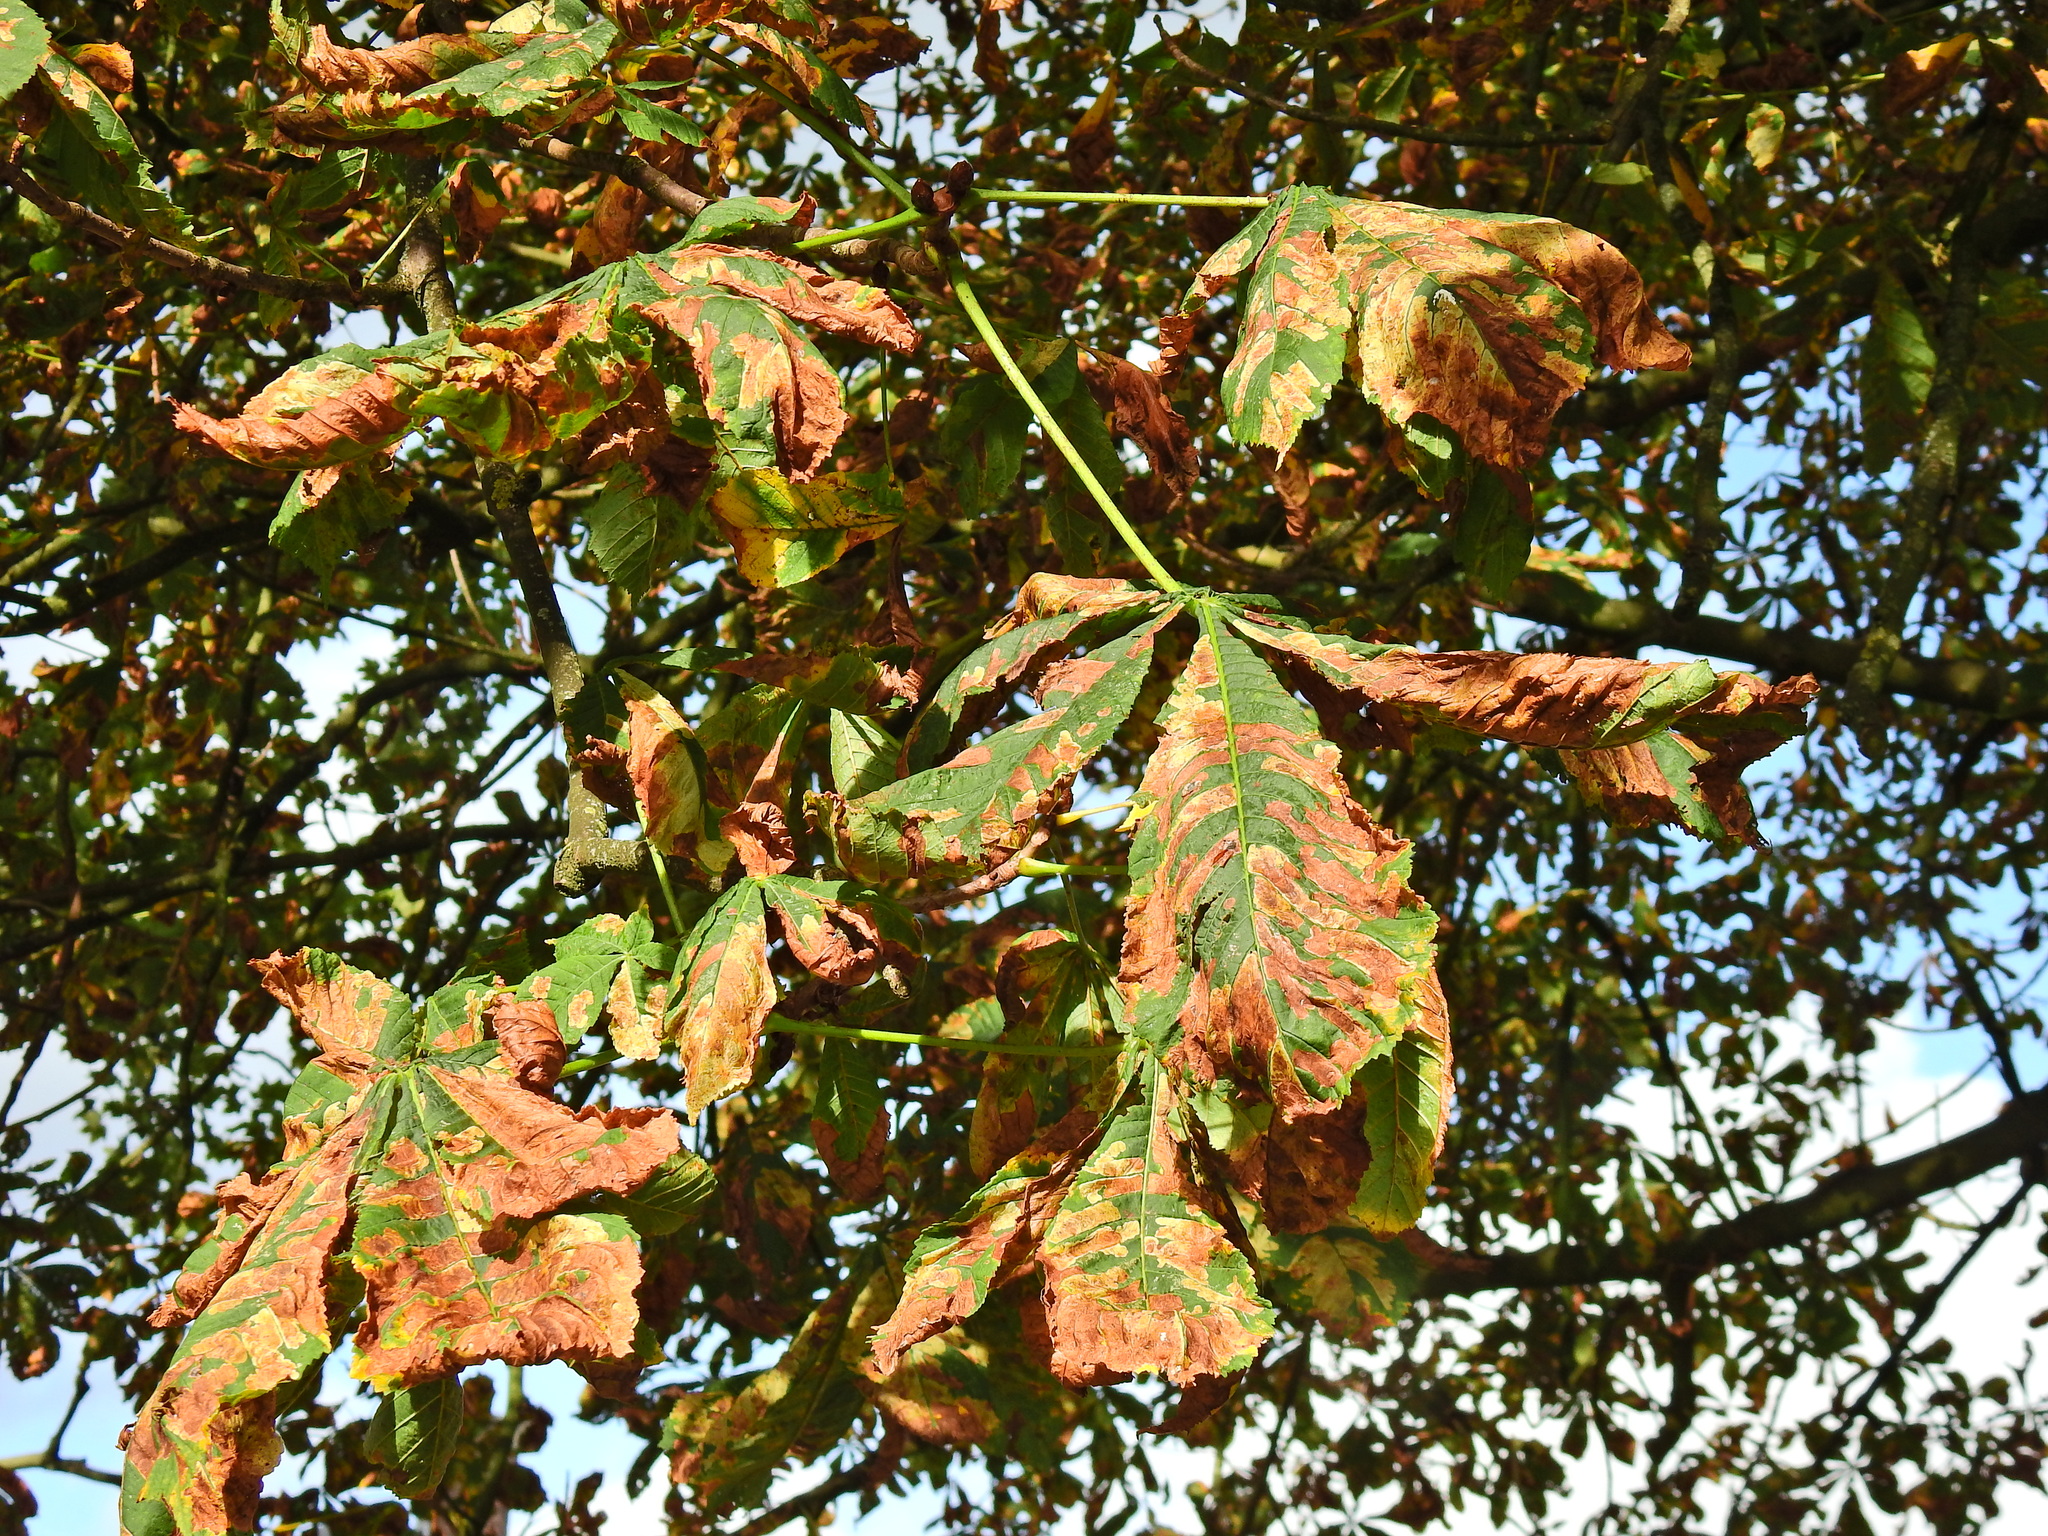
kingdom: Plantae
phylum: Tracheophyta
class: Magnoliopsida
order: Sapindales
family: Sapindaceae
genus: Aesculus
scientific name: Aesculus hippocastanum
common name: Horse-chestnut
